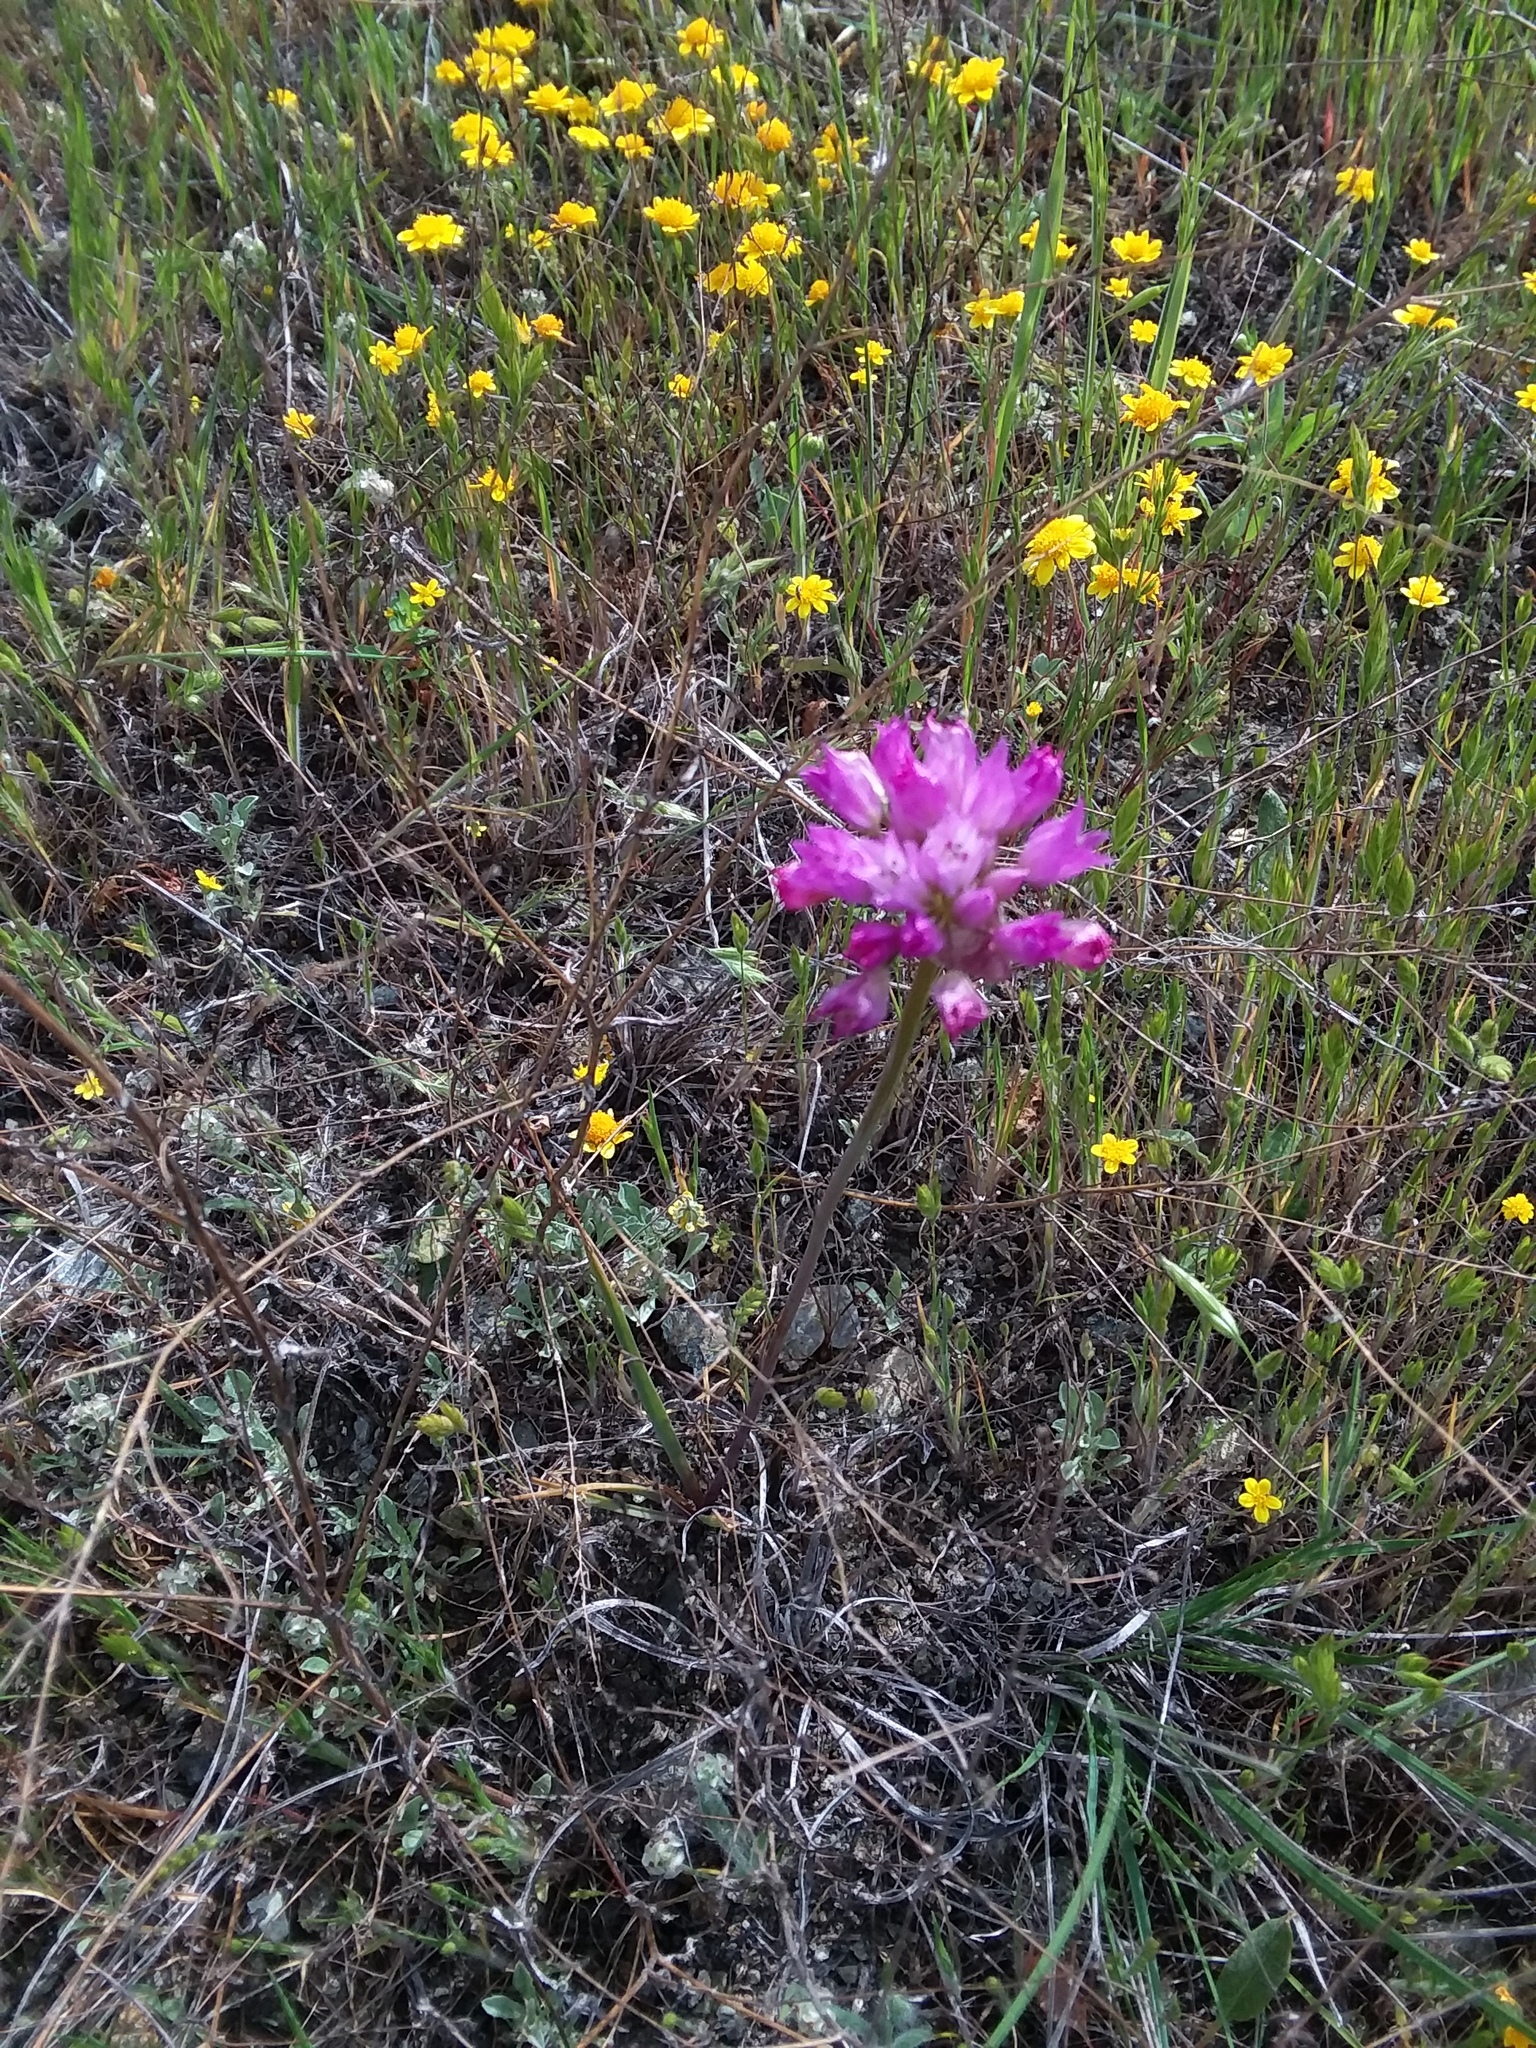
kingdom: Plantae
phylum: Tracheophyta
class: Liliopsida
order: Asparagales
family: Amaryllidaceae
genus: Allium
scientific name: Allium serra
